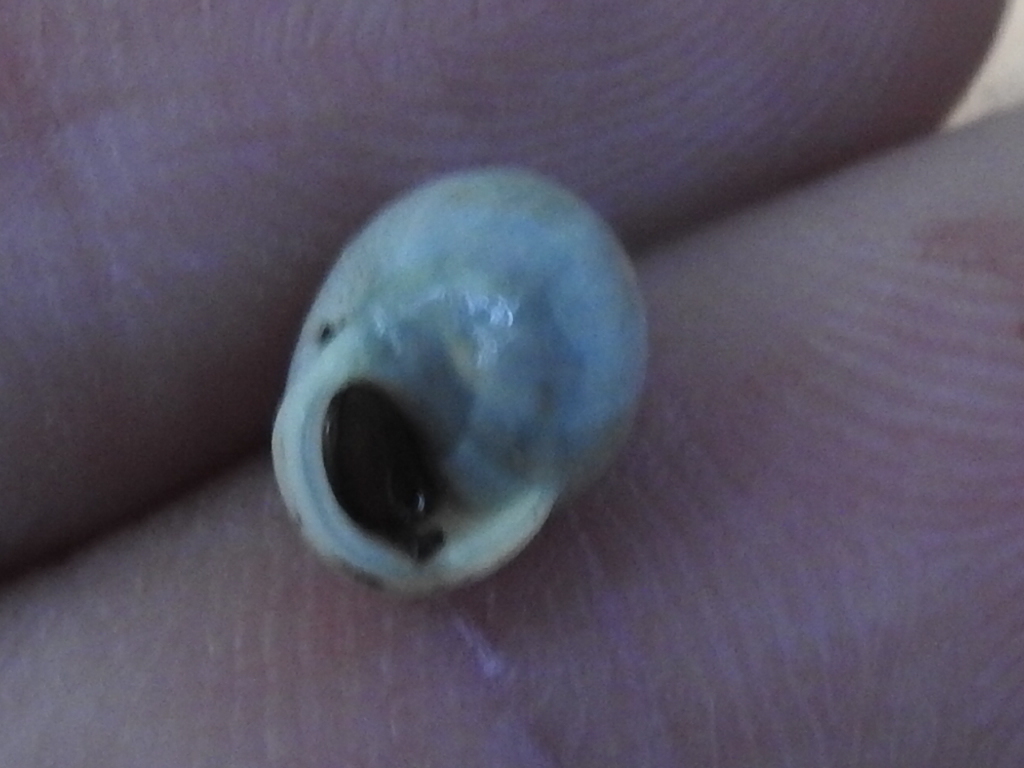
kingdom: Animalia
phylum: Mollusca
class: Gastropoda
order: Cycloneritida
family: Helicinidae
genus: Helicina
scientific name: Helicina orbiculata
